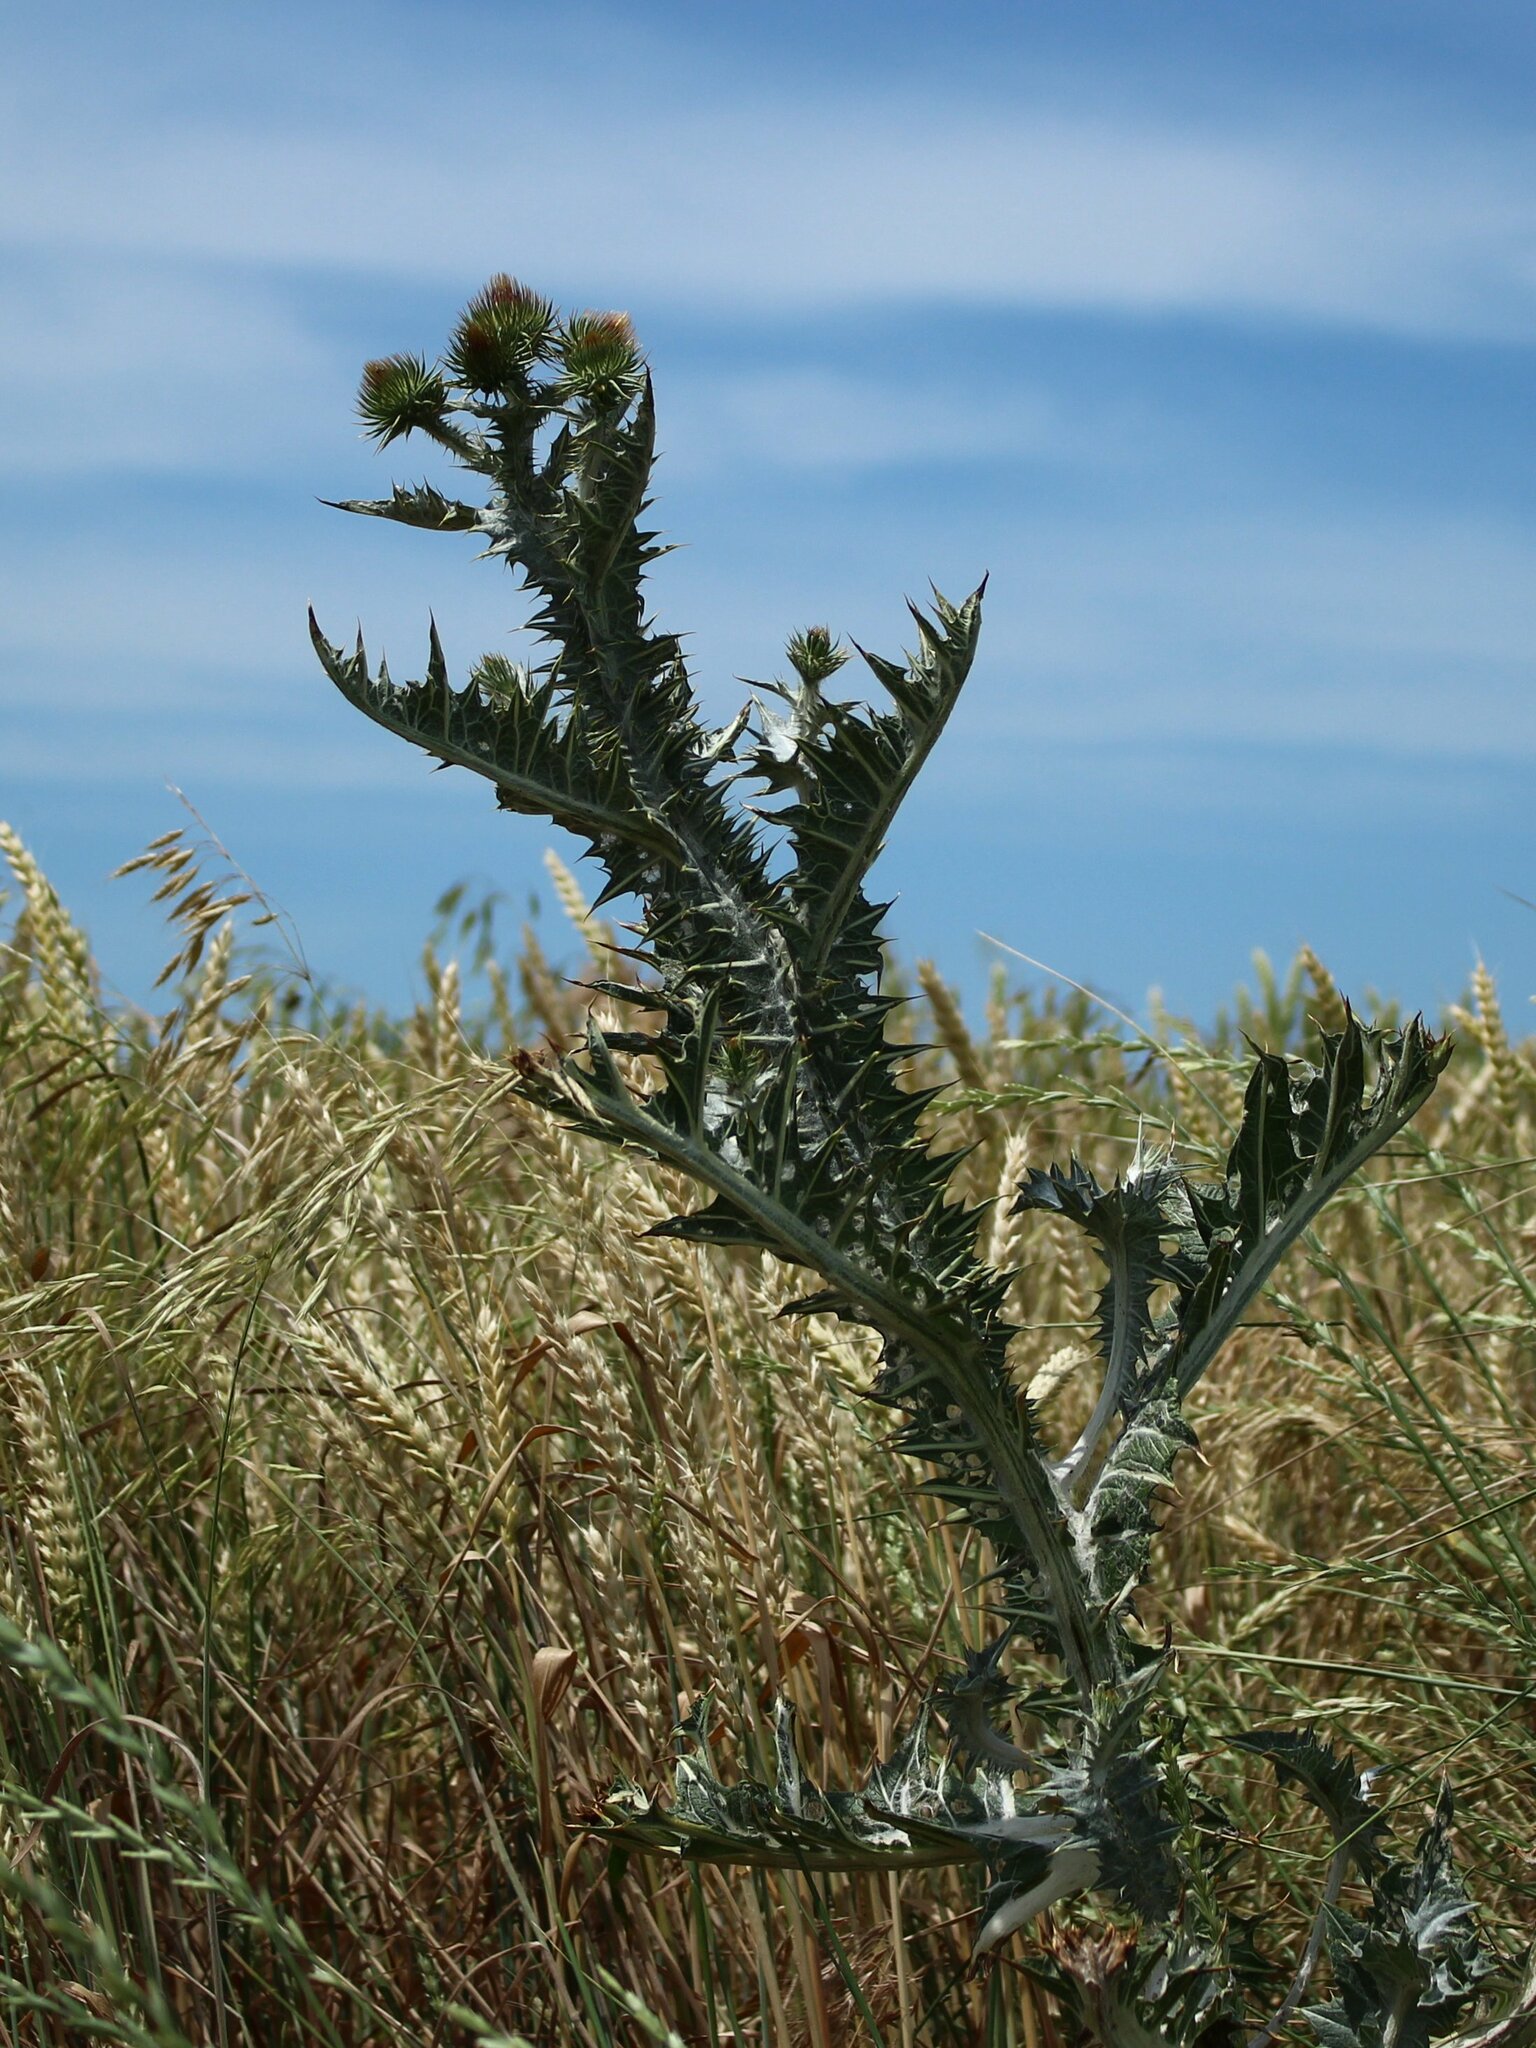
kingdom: Plantae
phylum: Tracheophyta
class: Magnoliopsida
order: Asterales
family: Asteraceae
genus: Onopordum
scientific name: Onopordum acanthium
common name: Scotch thistle
